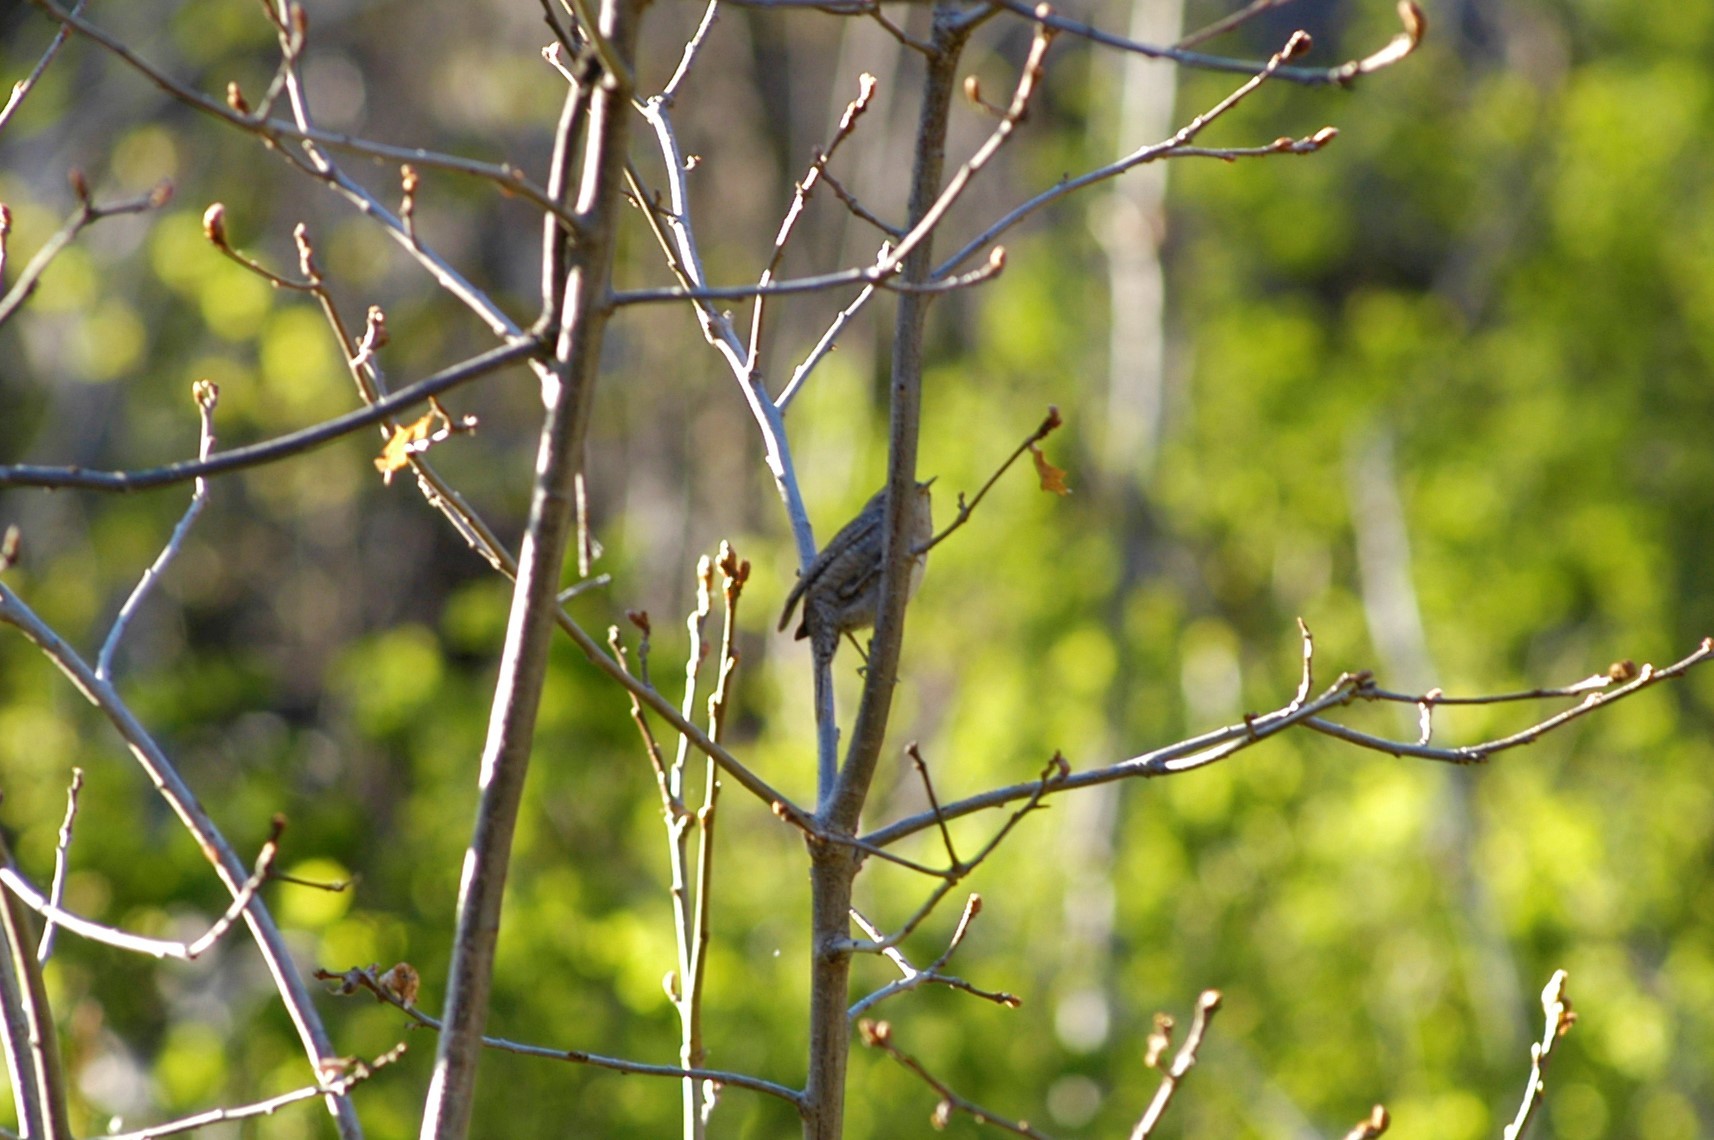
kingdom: Animalia
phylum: Chordata
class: Aves
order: Passeriformes
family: Troglodytidae
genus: Troglodytes
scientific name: Troglodytes aedon
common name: House wren
